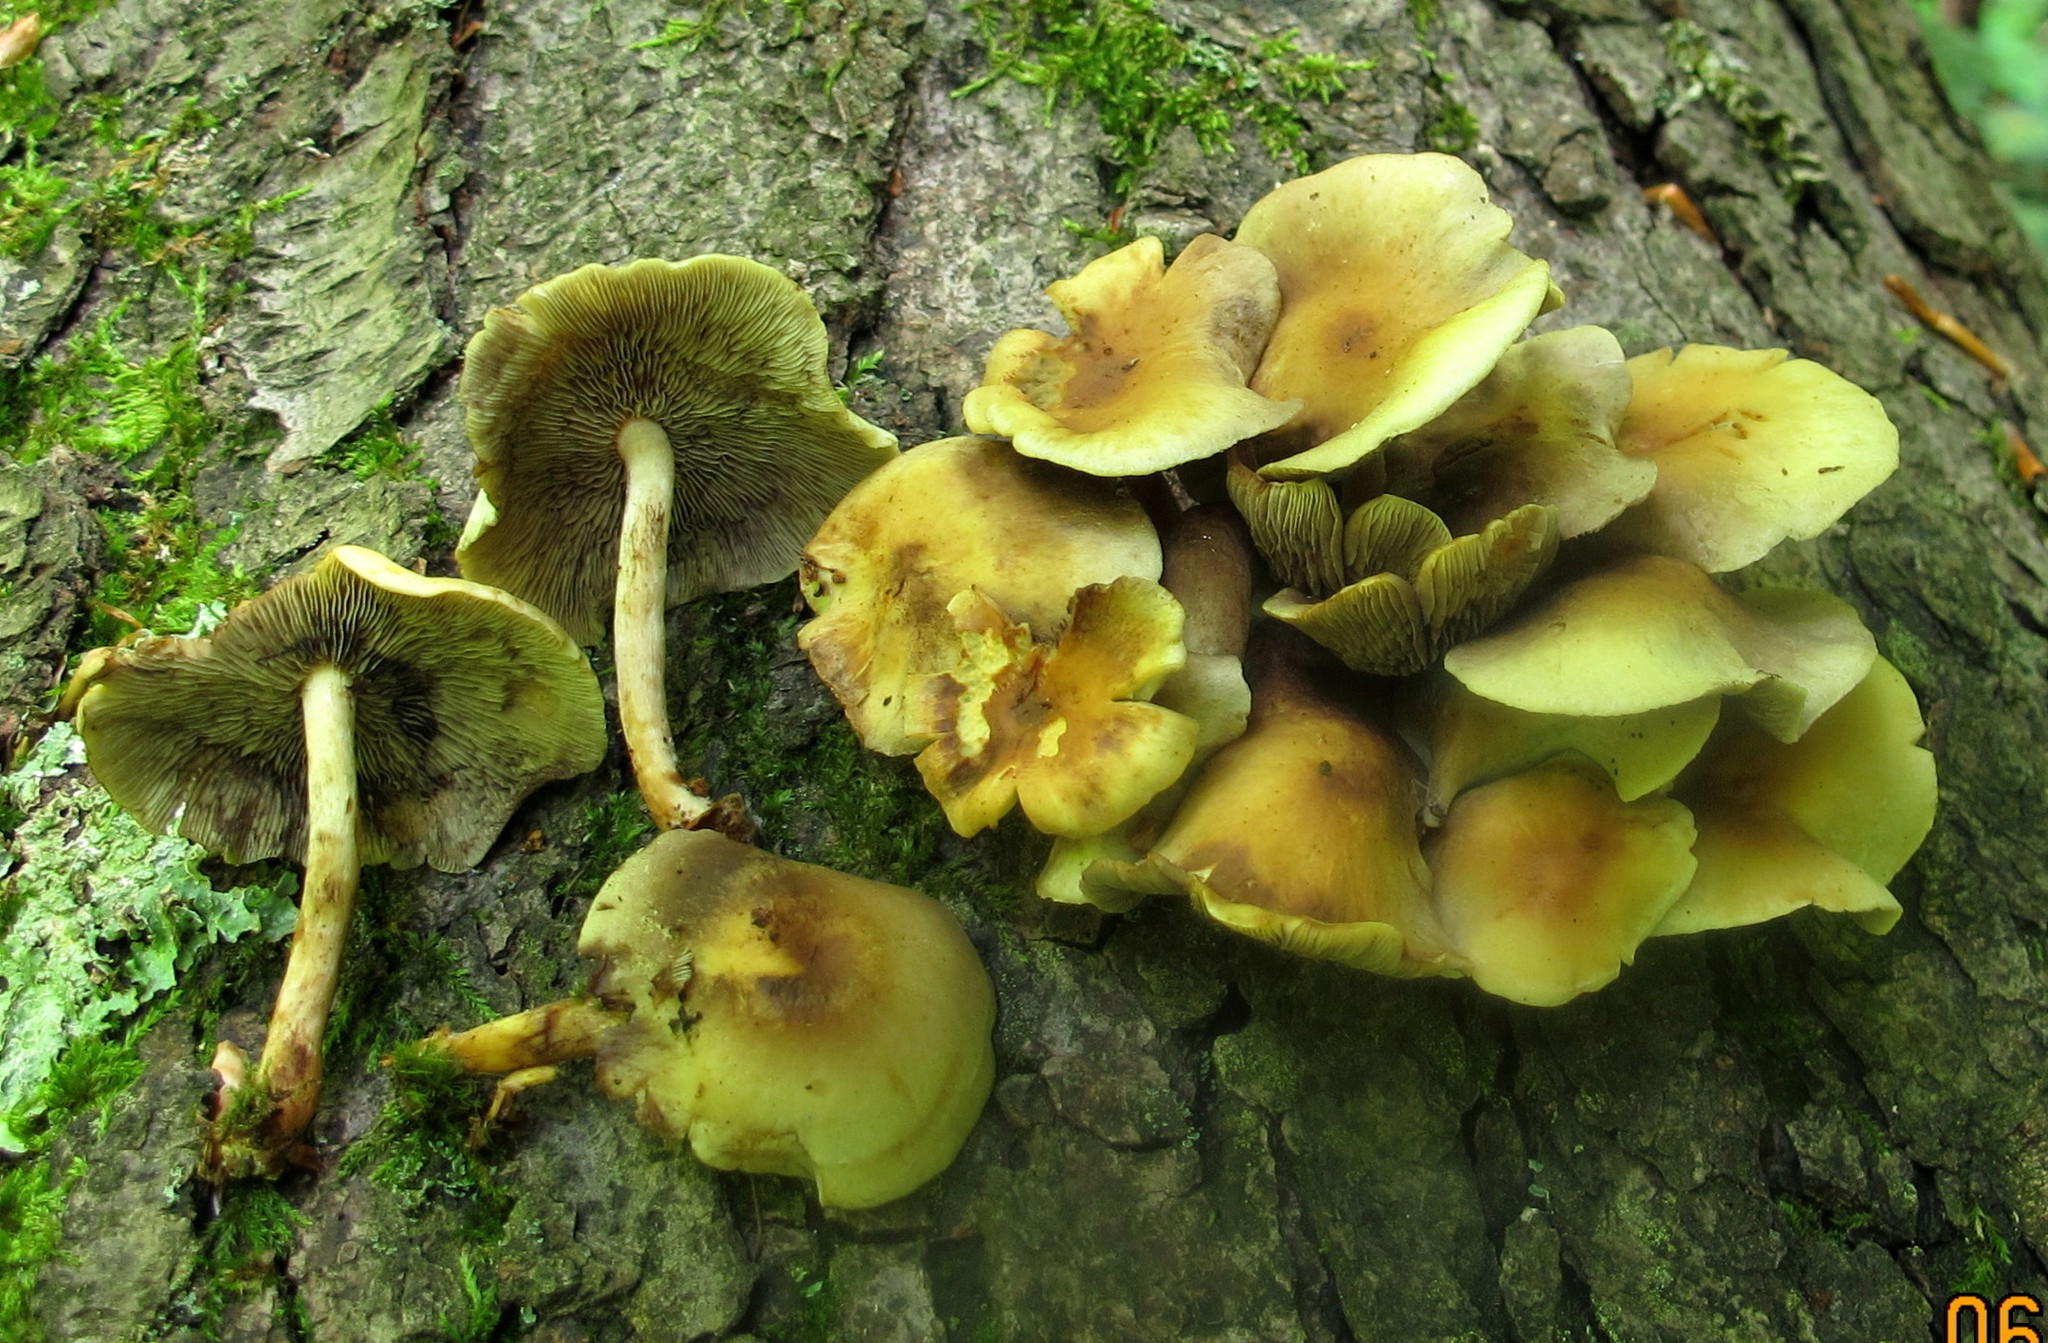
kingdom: Fungi
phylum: Basidiomycota
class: Agaricomycetes
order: Agaricales
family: Strophariaceae
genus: Hypholoma
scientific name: Hypholoma fasciculare
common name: Sulphur tuft
